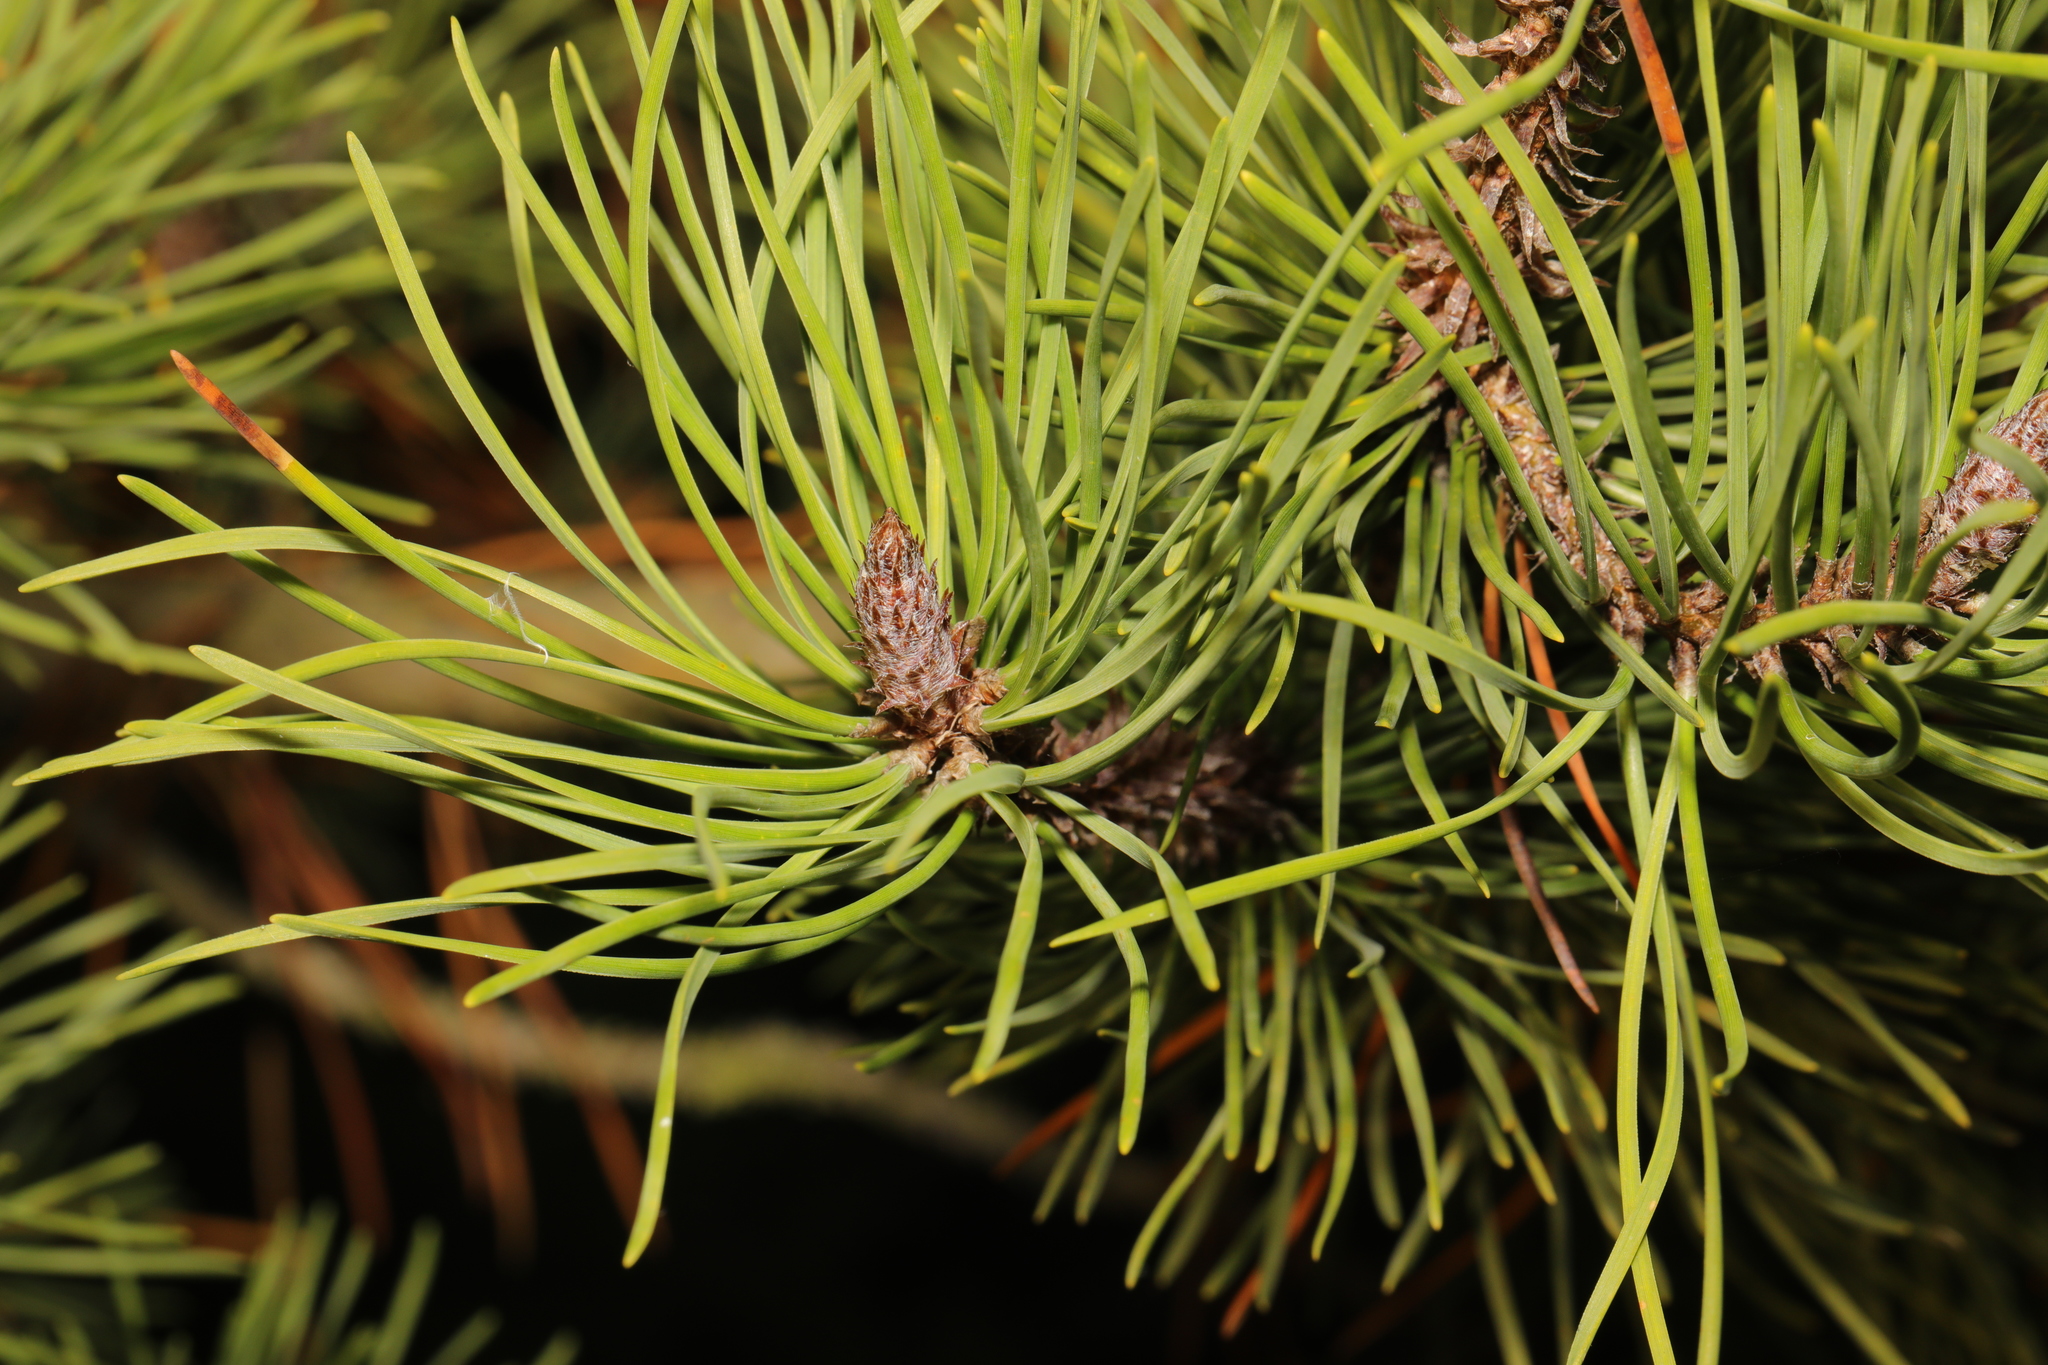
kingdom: Plantae
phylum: Tracheophyta
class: Pinopsida
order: Pinales
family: Pinaceae
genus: Pinus
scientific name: Pinus sylvestris
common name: Scots pine
